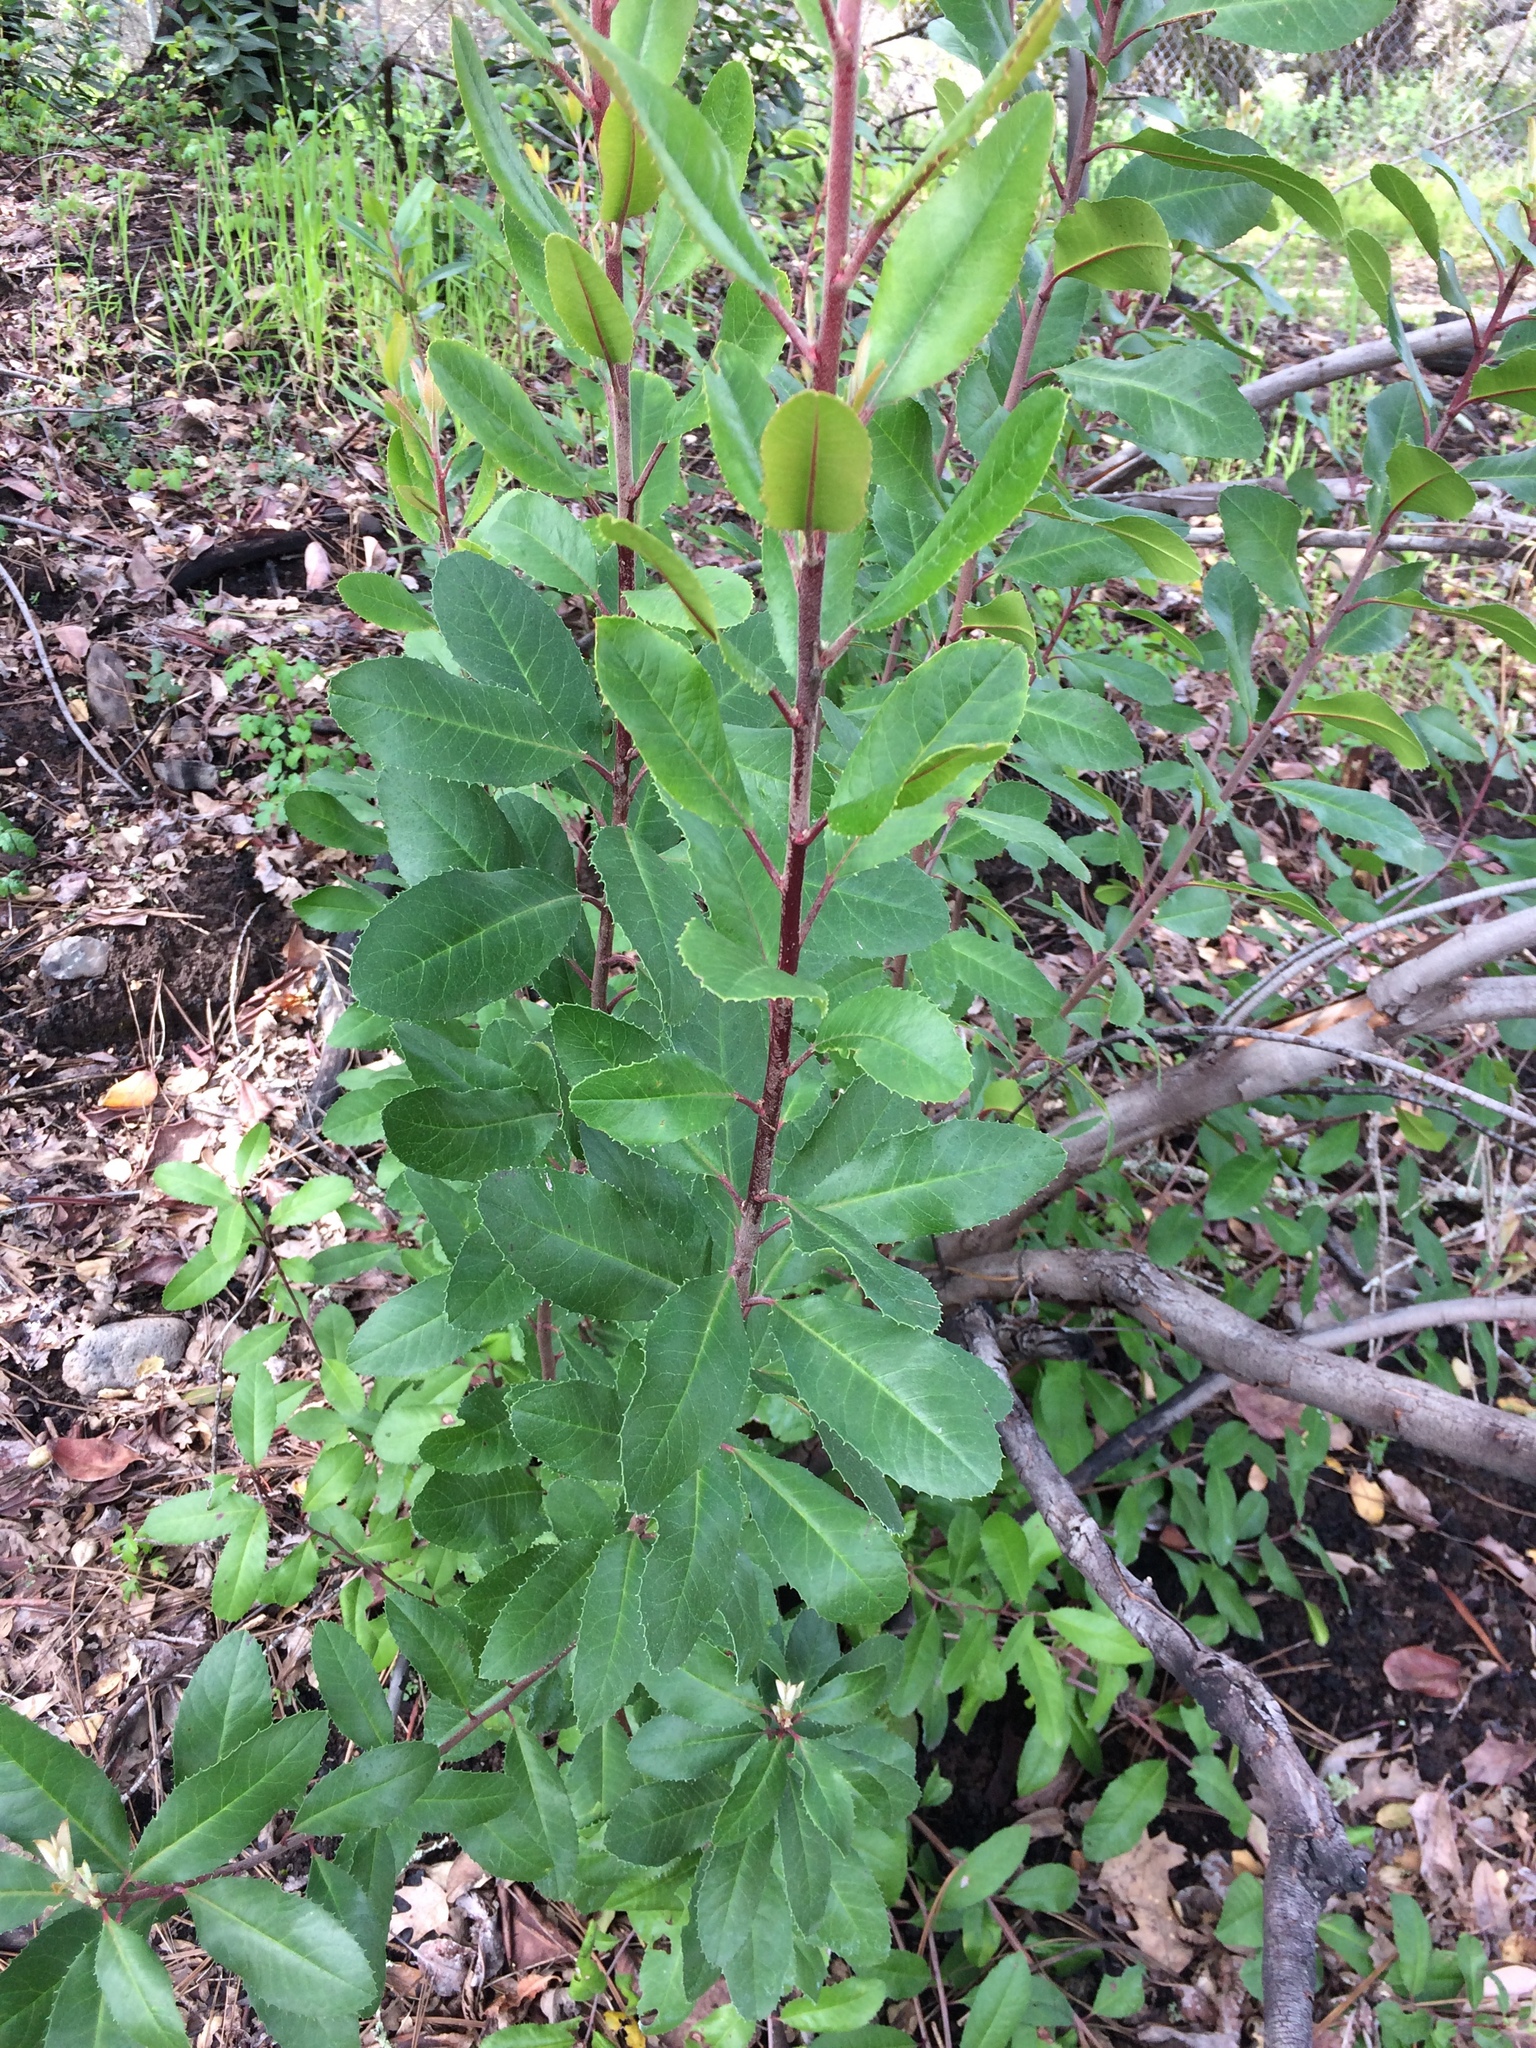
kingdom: Plantae
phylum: Tracheophyta
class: Magnoliopsida
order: Rosales
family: Rosaceae
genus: Heteromeles
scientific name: Heteromeles arbutifolia
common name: California-holly
